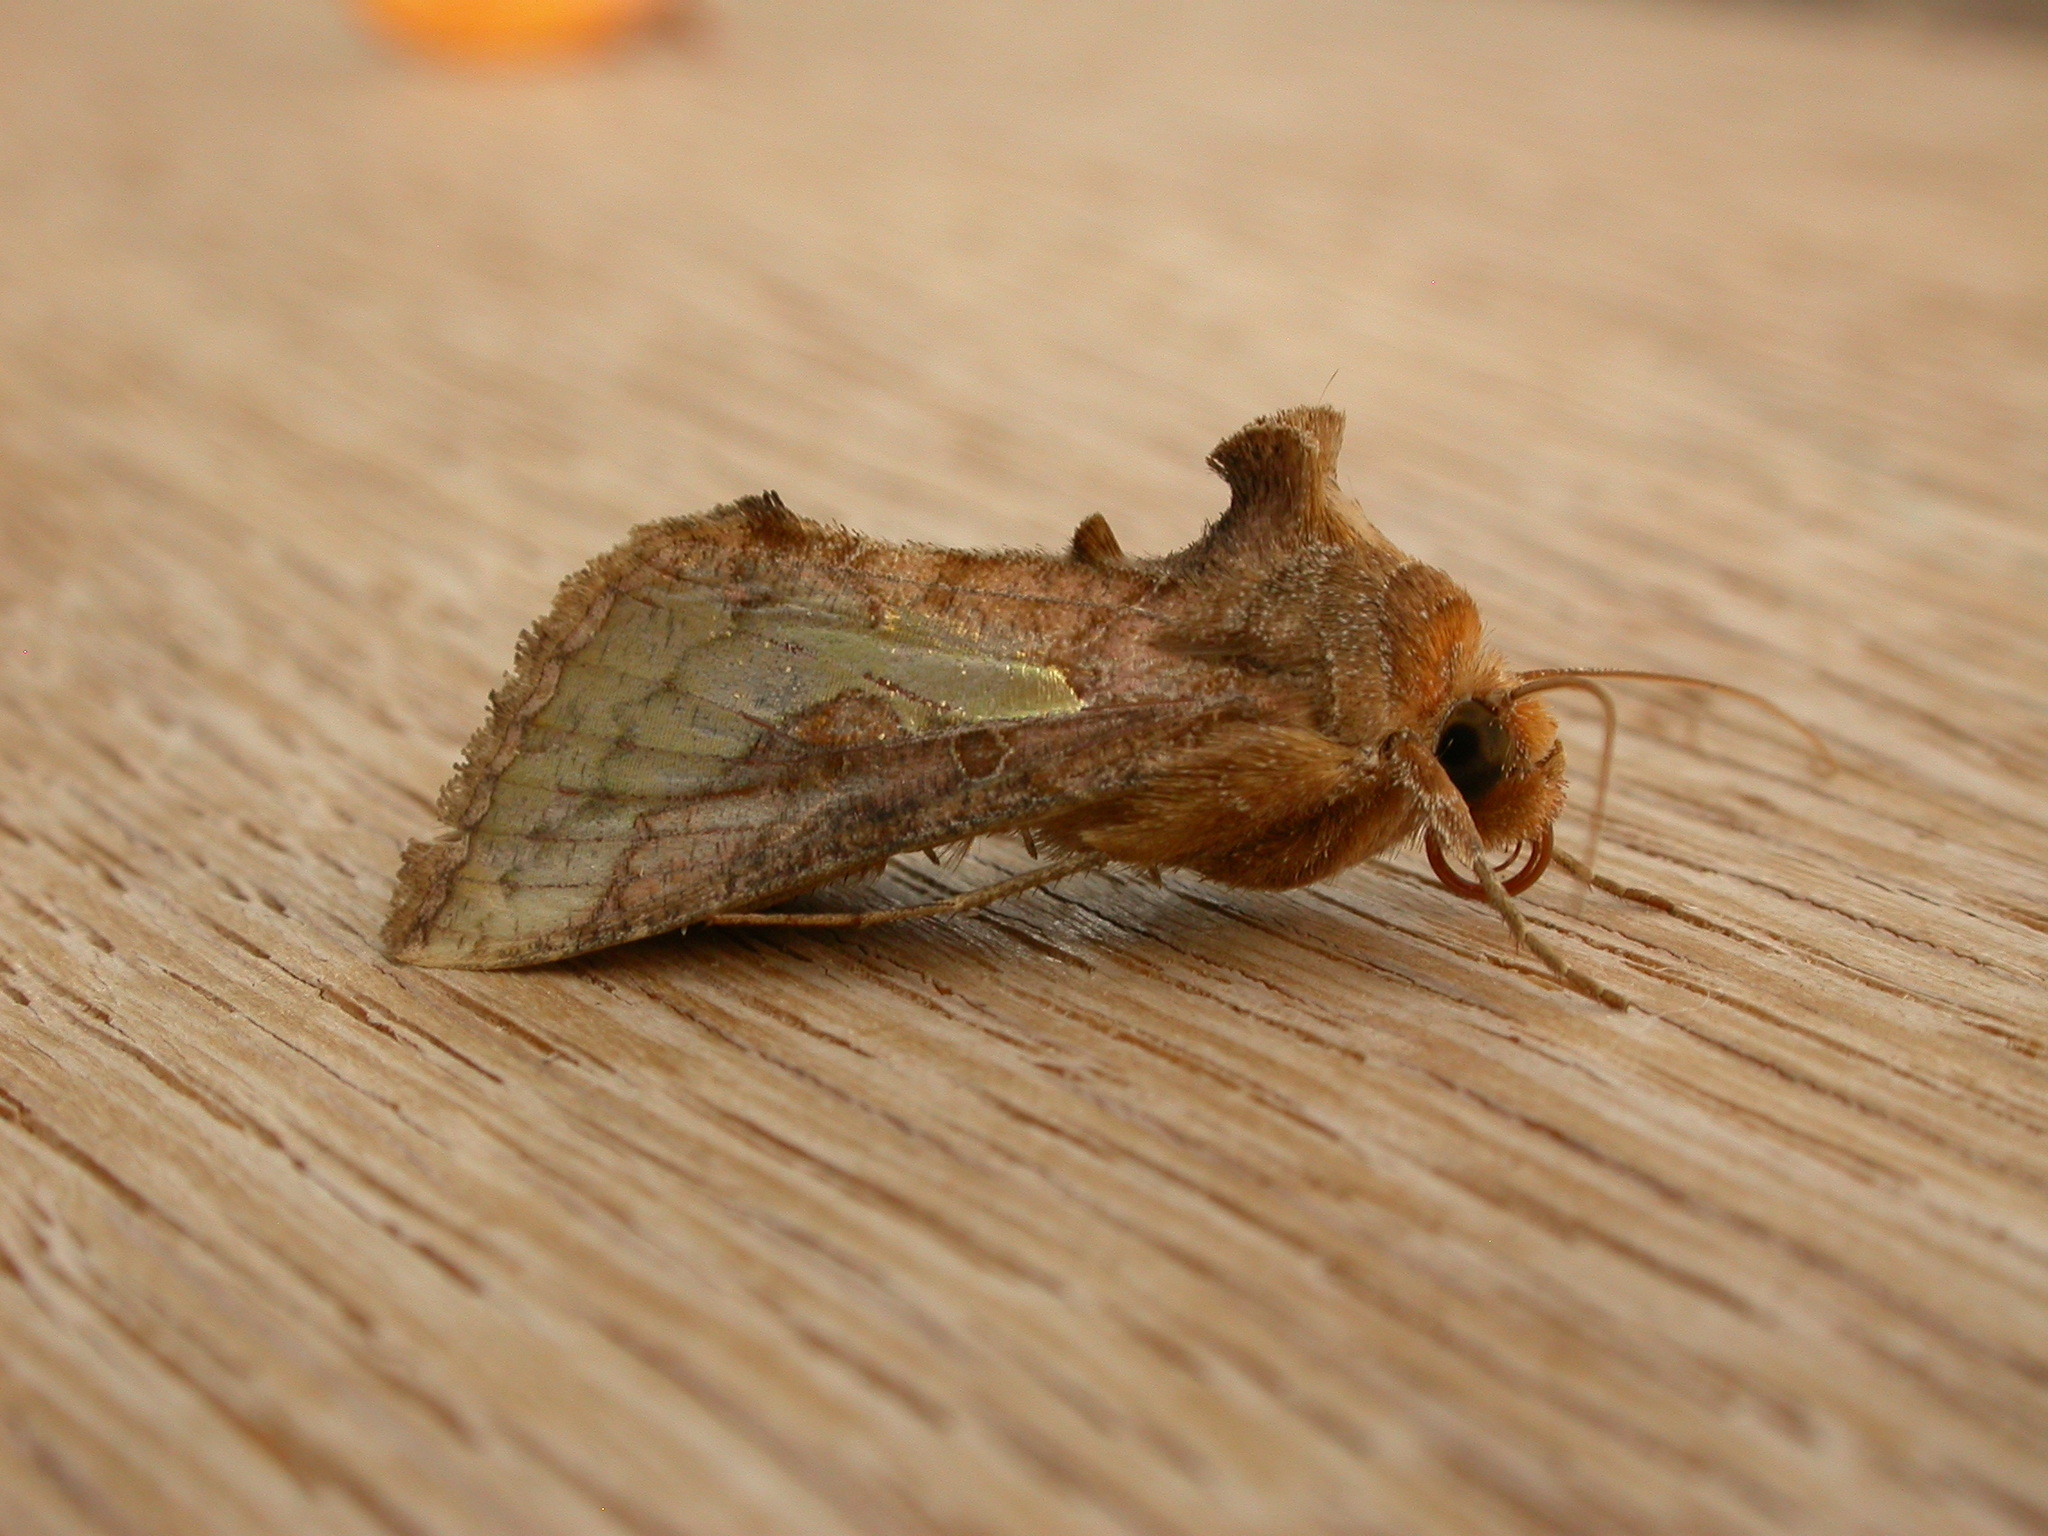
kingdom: Animalia
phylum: Arthropoda
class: Insecta
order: Lepidoptera
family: Noctuidae
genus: Thysanoplusia
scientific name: Thysanoplusia orichalcea
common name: Slender burnished brass, golden plusia
